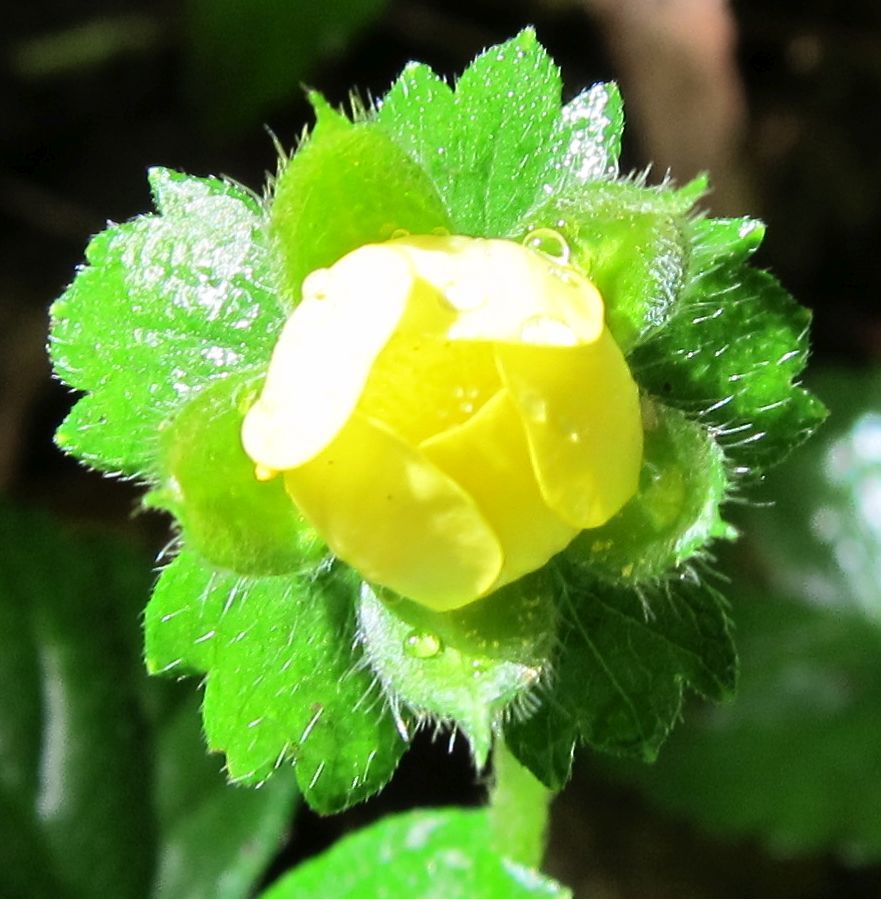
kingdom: Plantae
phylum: Tracheophyta
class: Magnoliopsida
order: Rosales
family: Rosaceae
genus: Potentilla
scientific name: Potentilla indica
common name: Yellow-flowered strawberry
